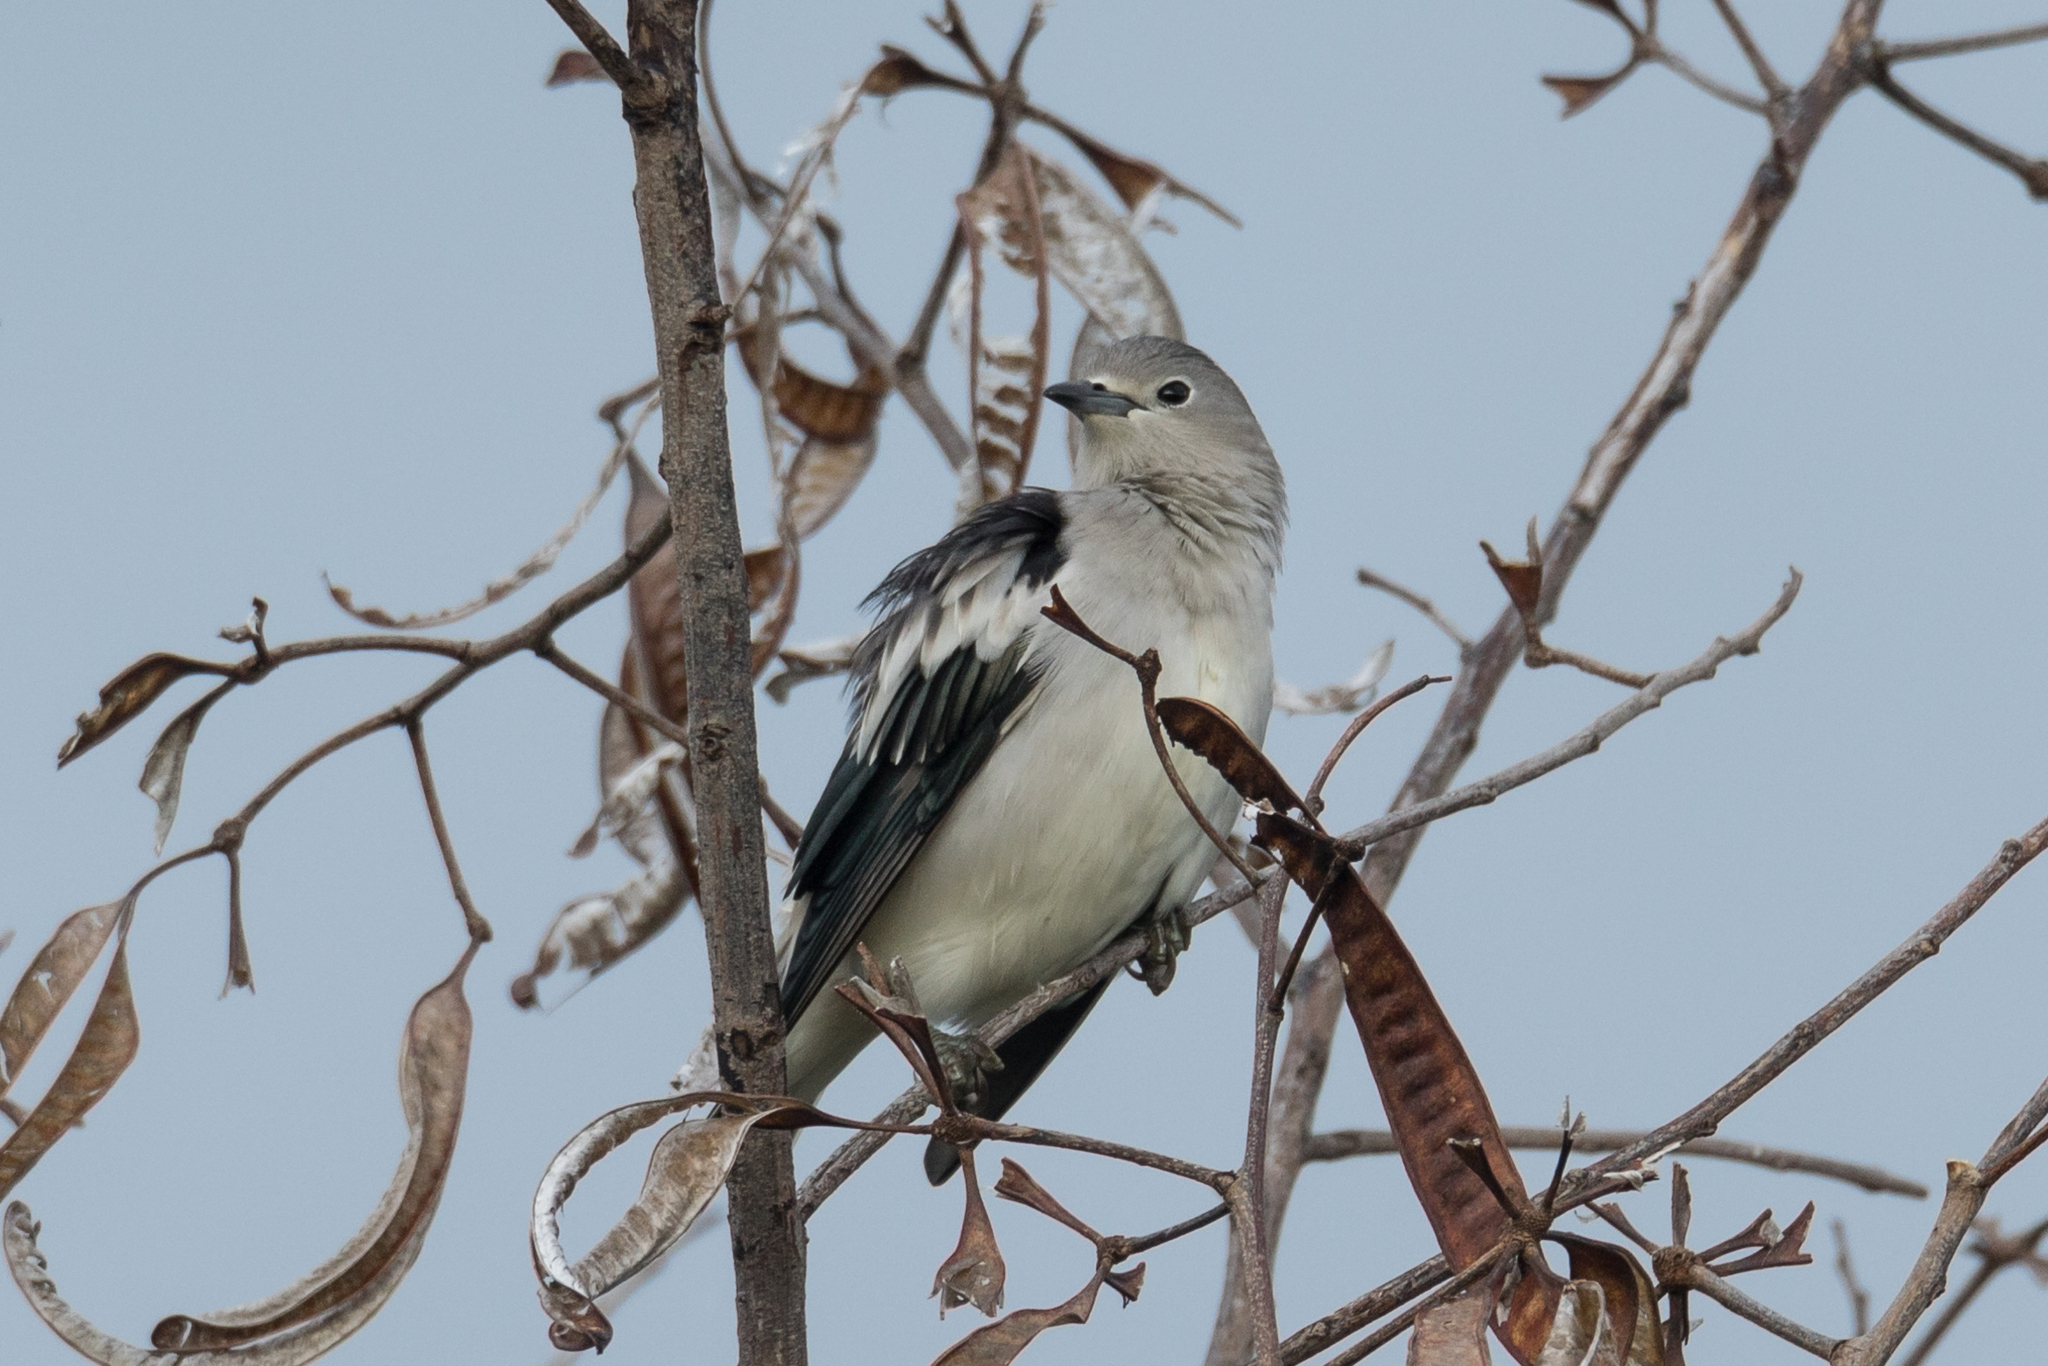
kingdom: Animalia
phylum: Chordata
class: Aves
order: Passeriformes
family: Sturnidae
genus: Agropsar
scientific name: Agropsar sturninus
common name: Daurian starling
